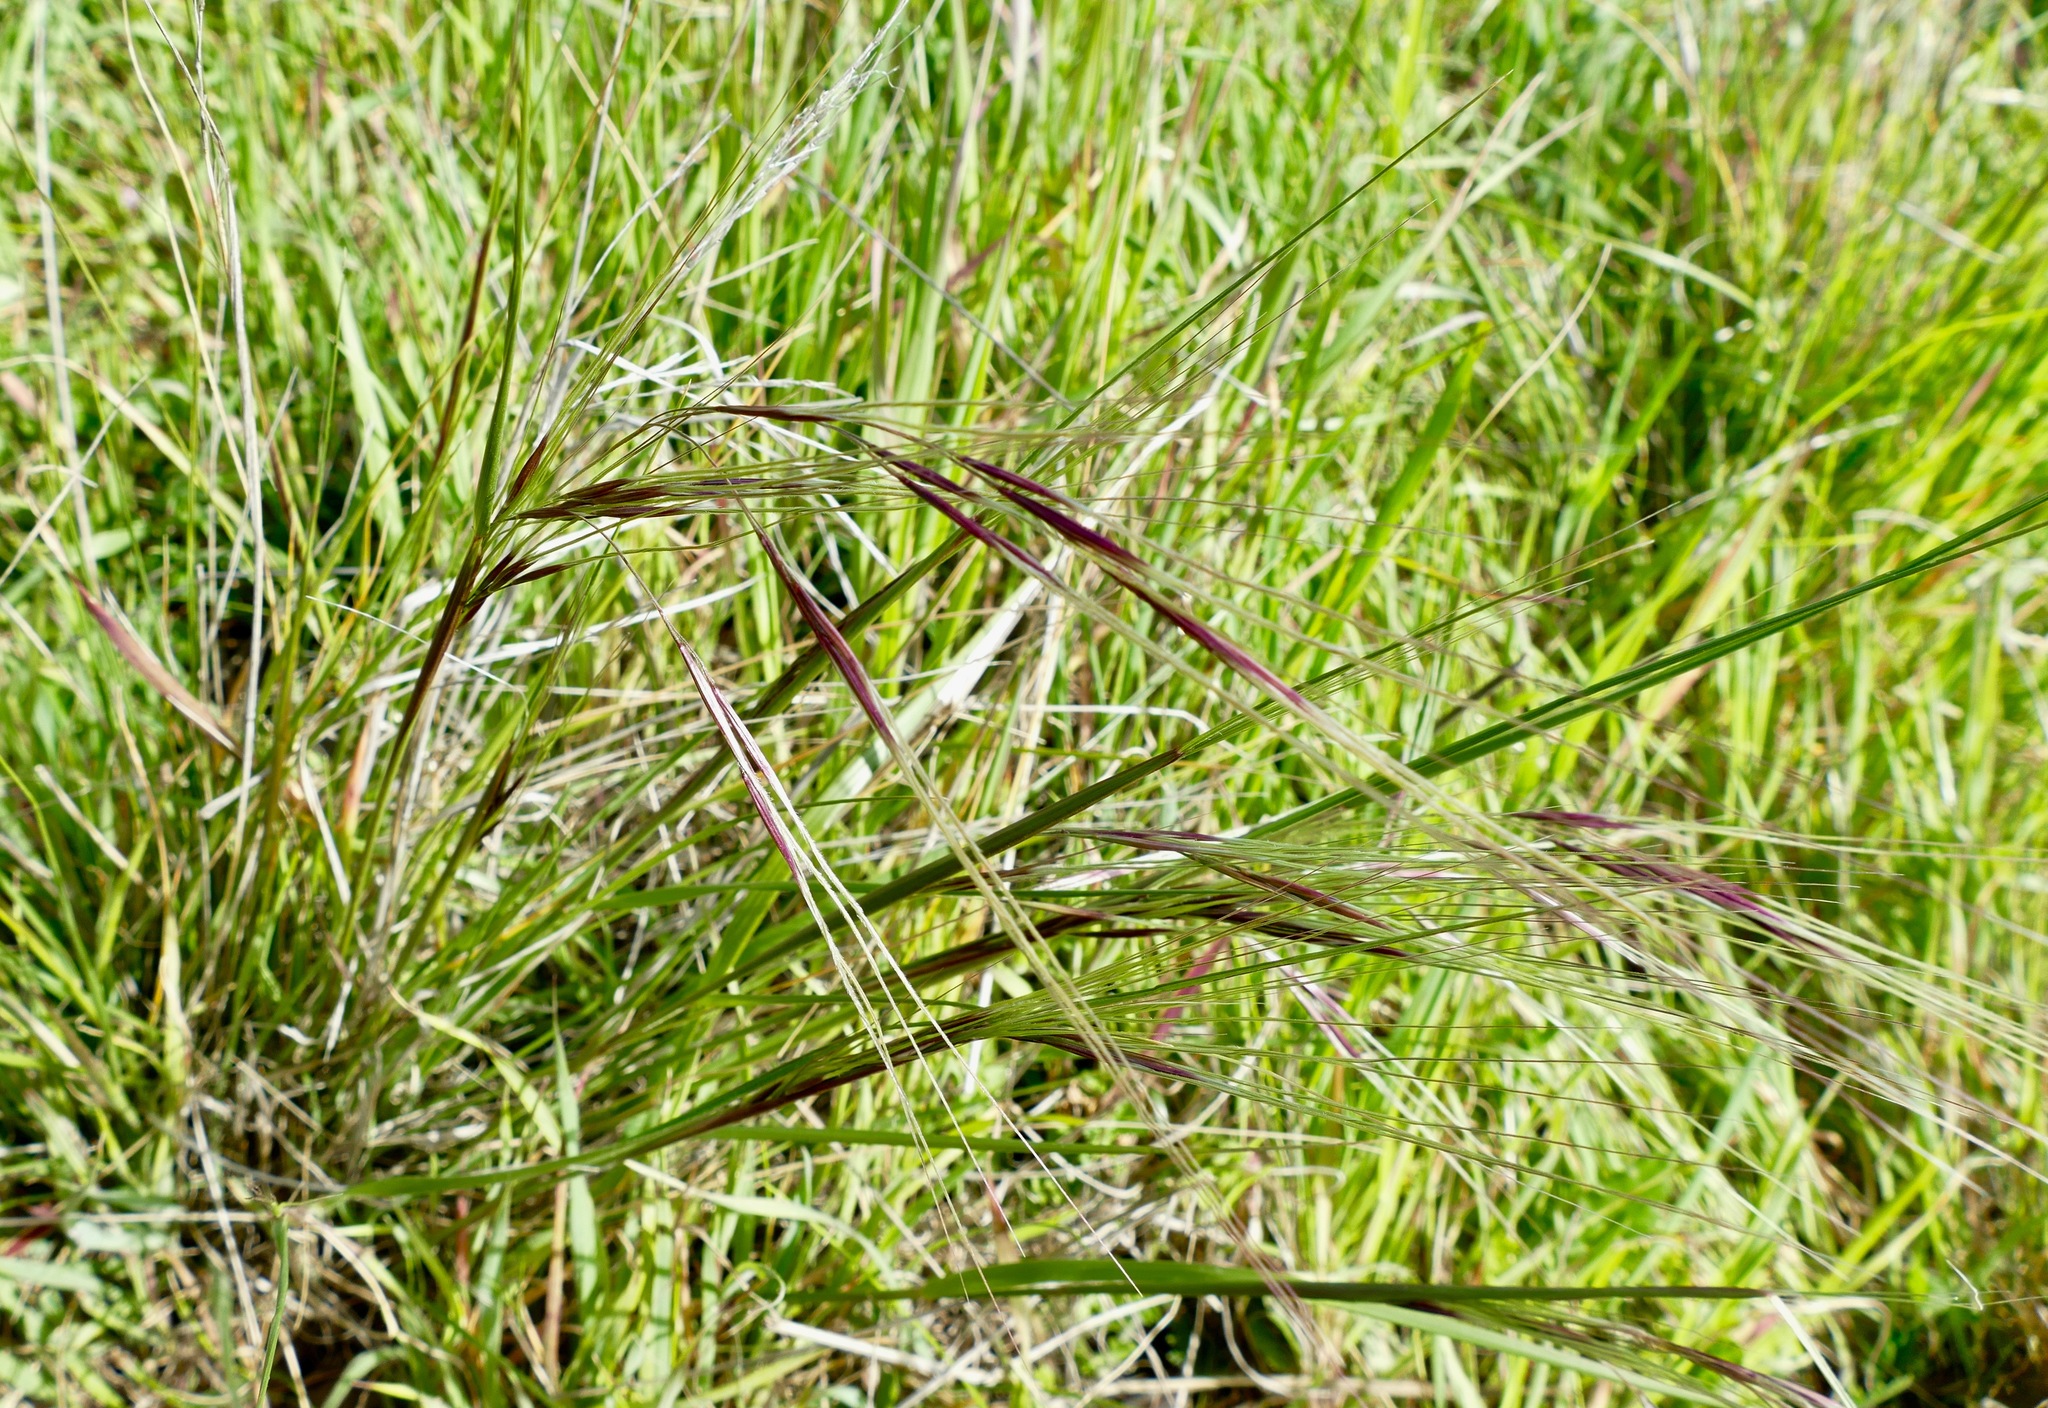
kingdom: Plantae
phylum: Tracheophyta
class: Liliopsida
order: Poales
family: Poaceae
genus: Nassella
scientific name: Nassella pulchra
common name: Purple needlegrass
